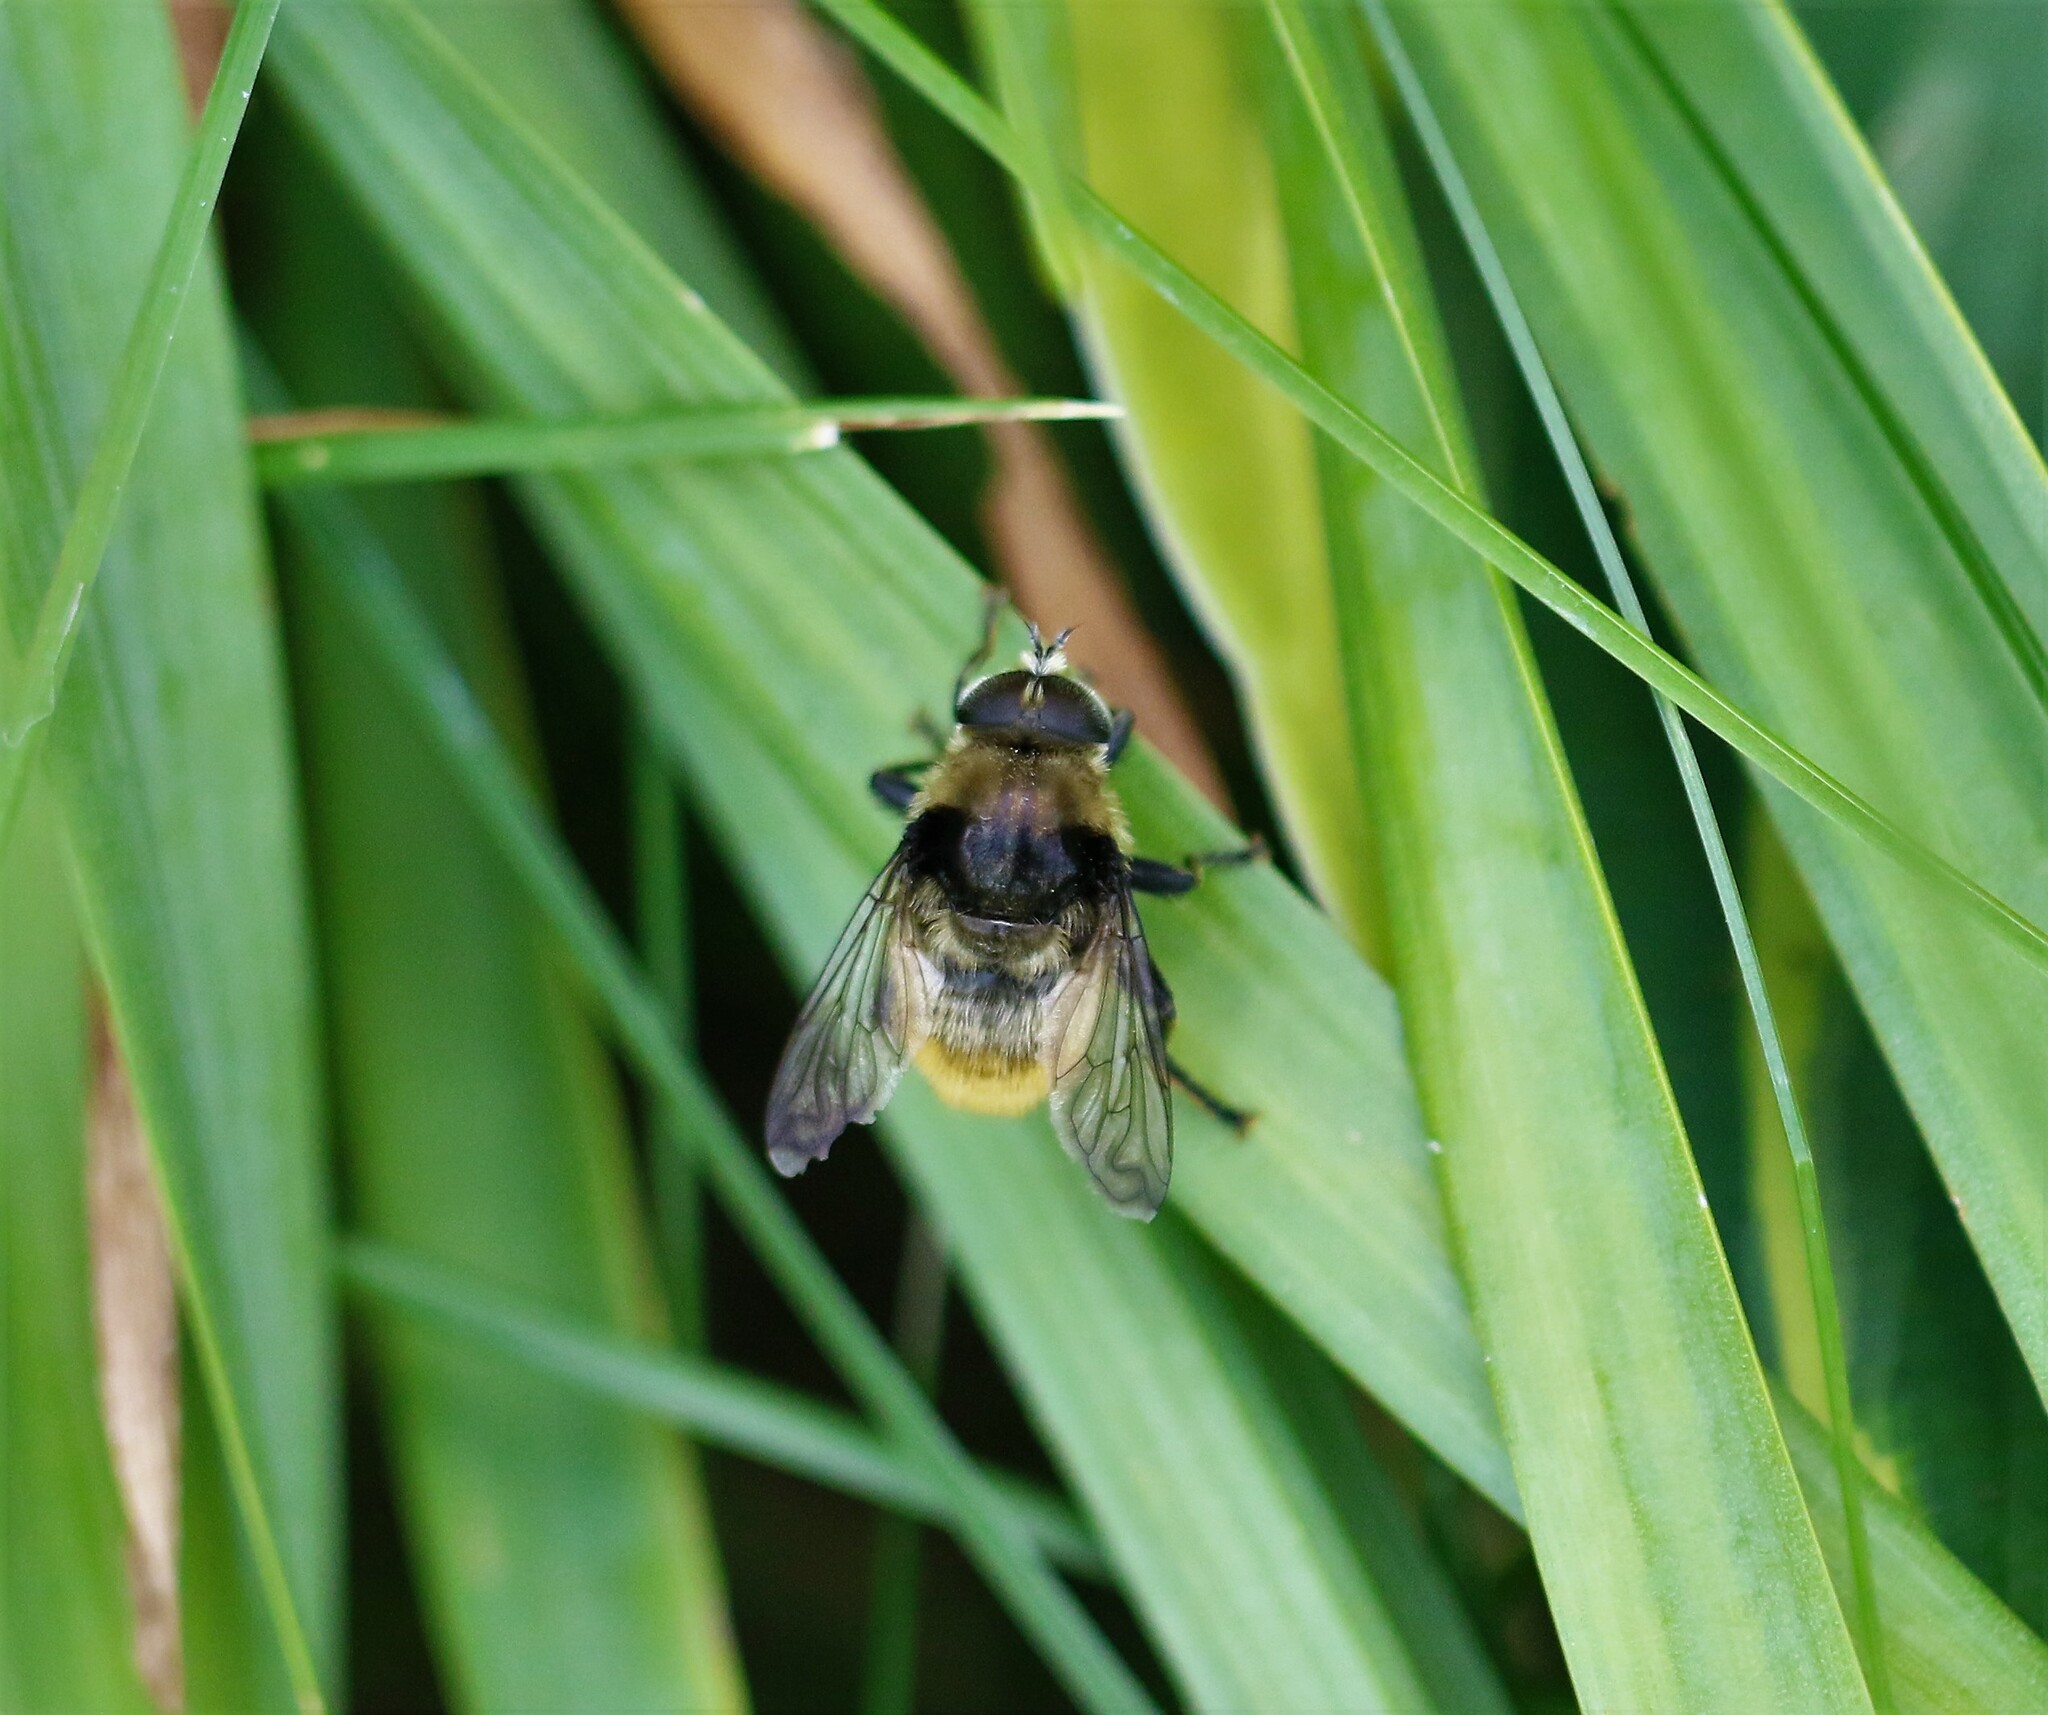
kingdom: Animalia
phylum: Arthropoda
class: Insecta
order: Diptera
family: Syrphidae
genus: Merodon
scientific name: Merodon equestris
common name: Greater bulb-fly
